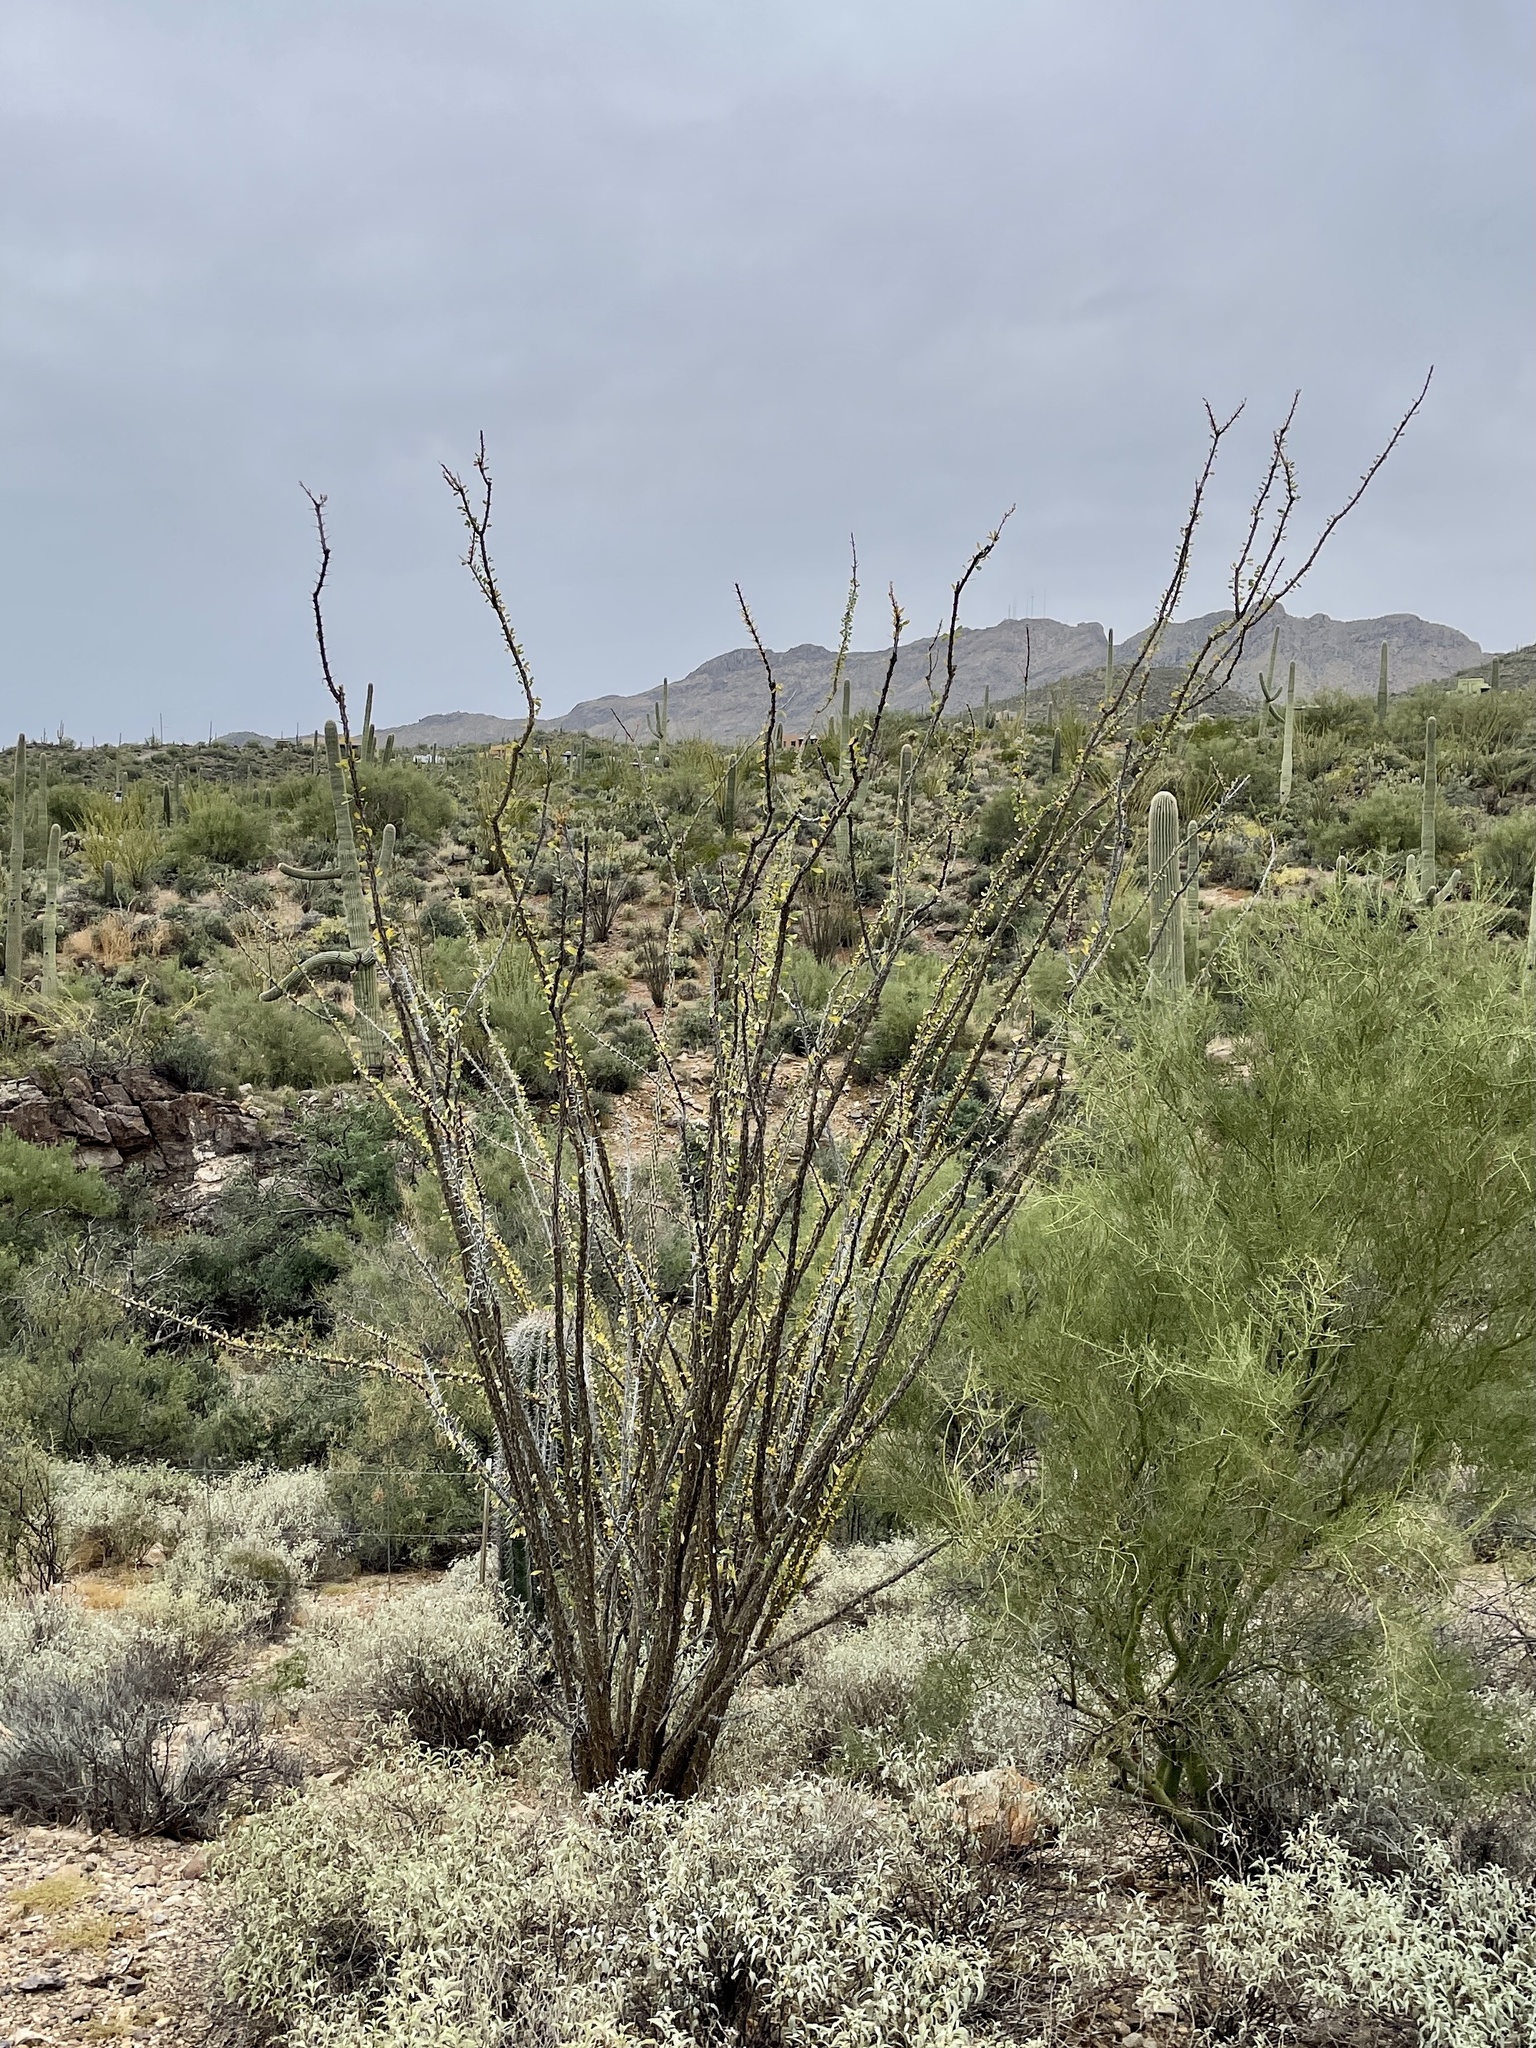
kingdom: Plantae
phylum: Tracheophyta
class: Magnoliopsida
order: Ericales
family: Fouquieriaceae
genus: Fouquieria
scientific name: Fouquieria splendens
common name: Vine-cactus
